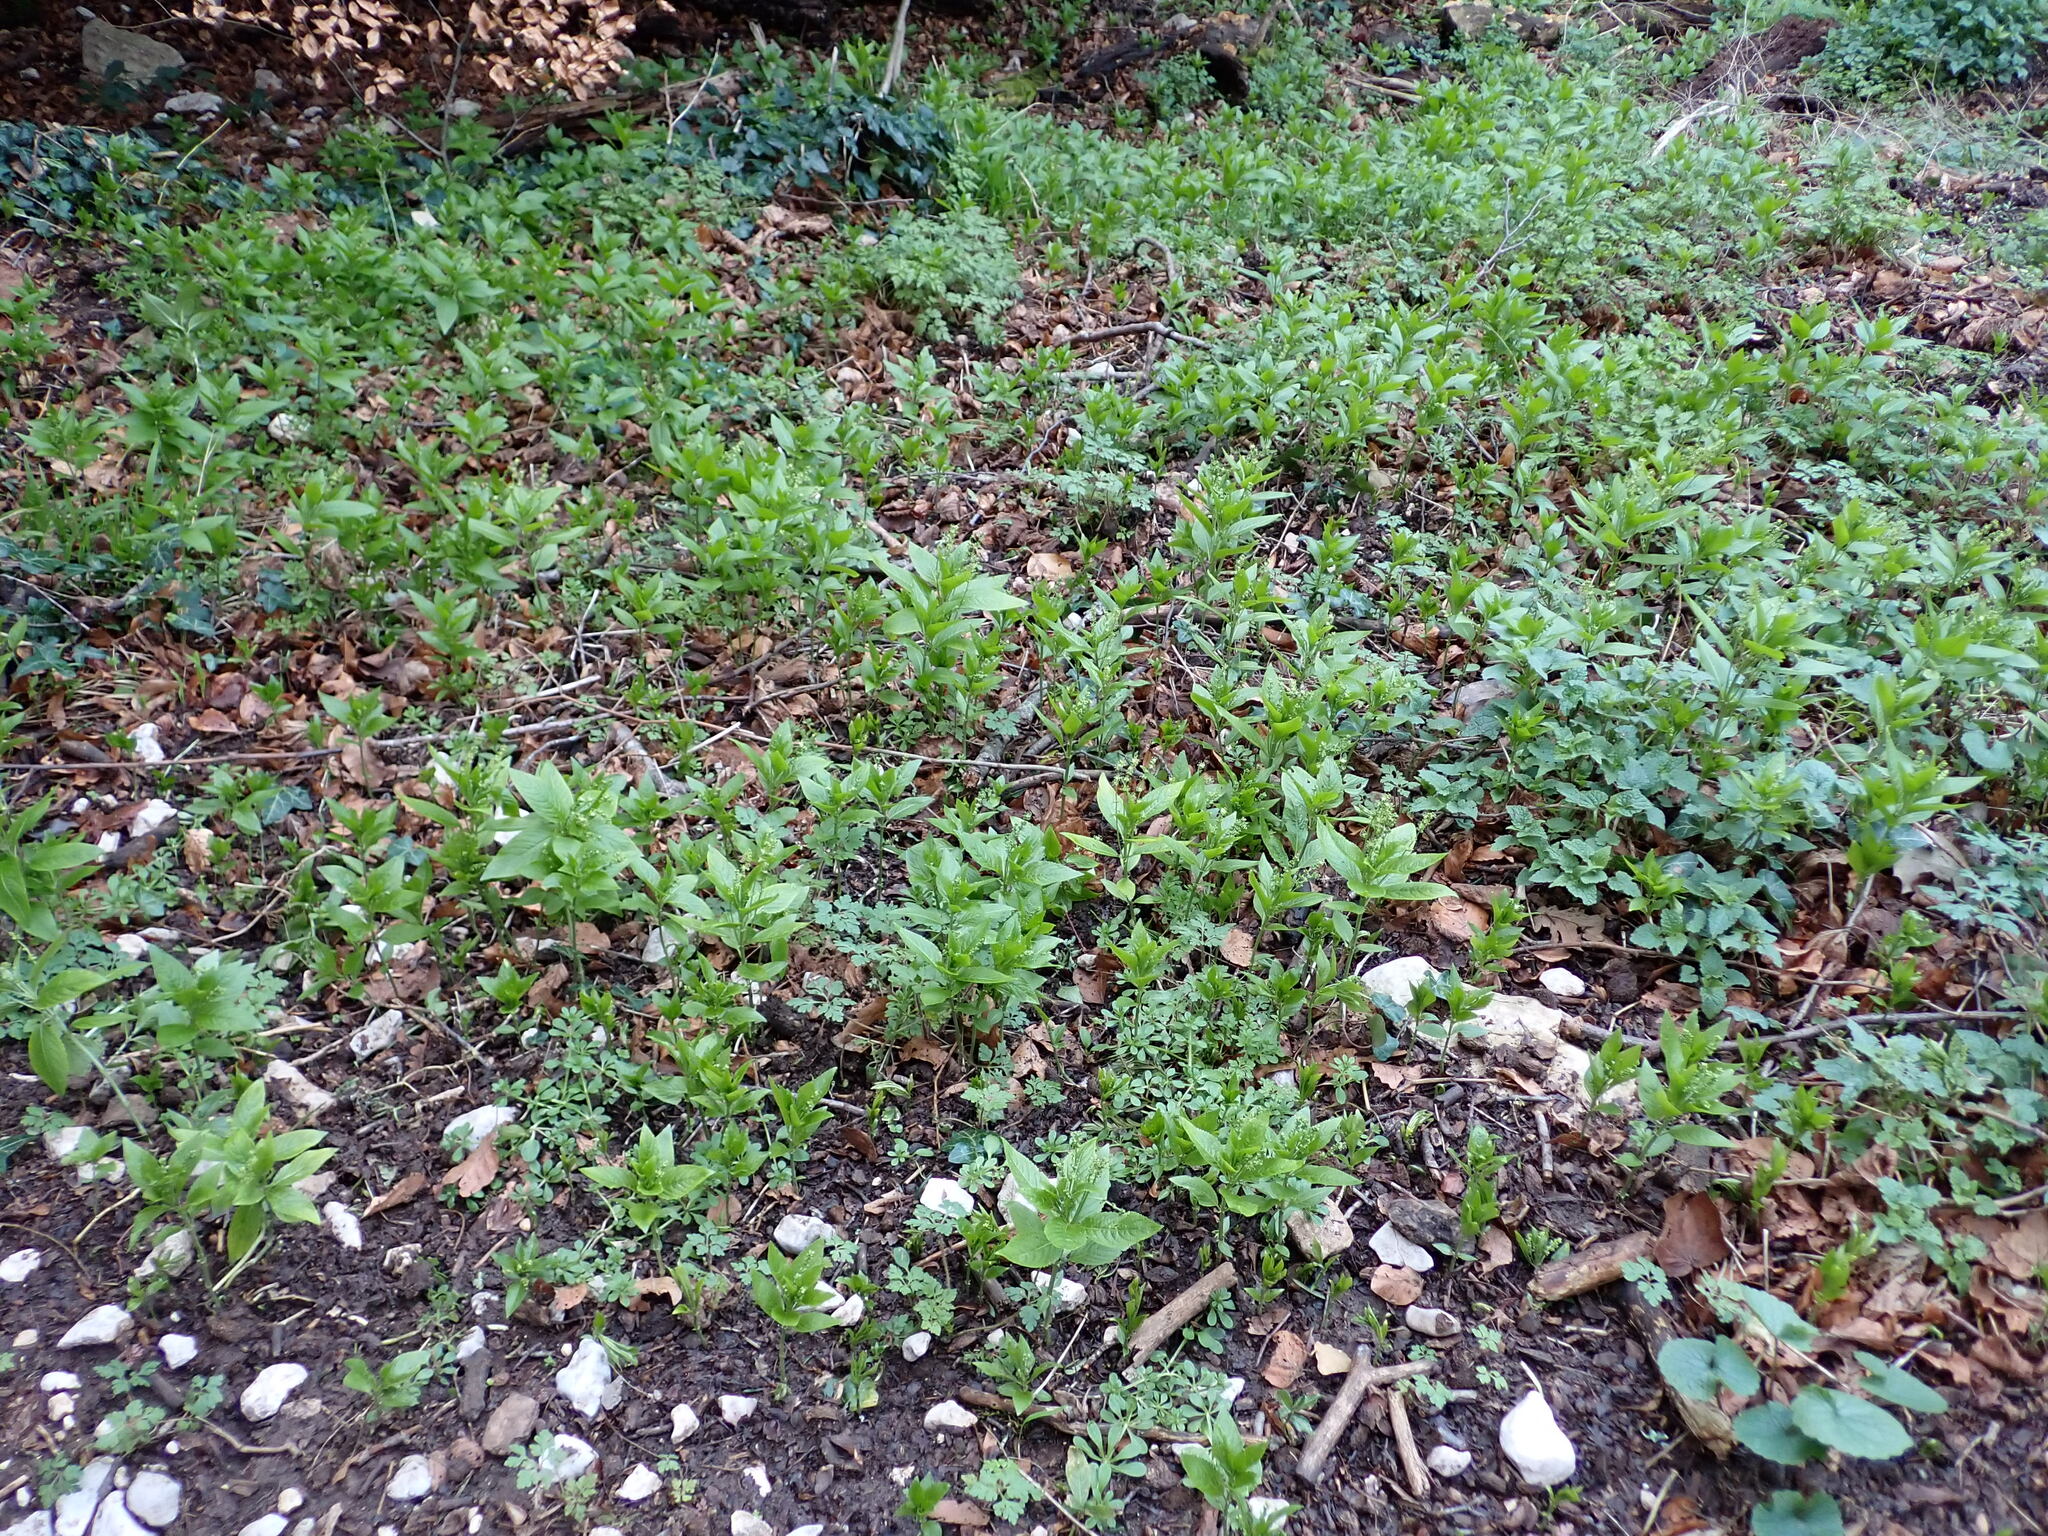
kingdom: Plantae
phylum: Tracheophyta
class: Magnoliopsida
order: Malpighiales
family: Euphorbiaceae
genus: Mercurialis
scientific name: Mercurialis perennis
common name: Dog mercury
